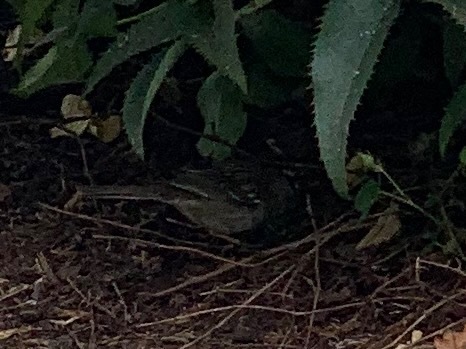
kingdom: Animalia
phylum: Chordata
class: Aves
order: Passeriformes
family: Passerellidae
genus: Zonotrichia
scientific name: Zonotrichia leucophrys
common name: White-crowned sparrow
